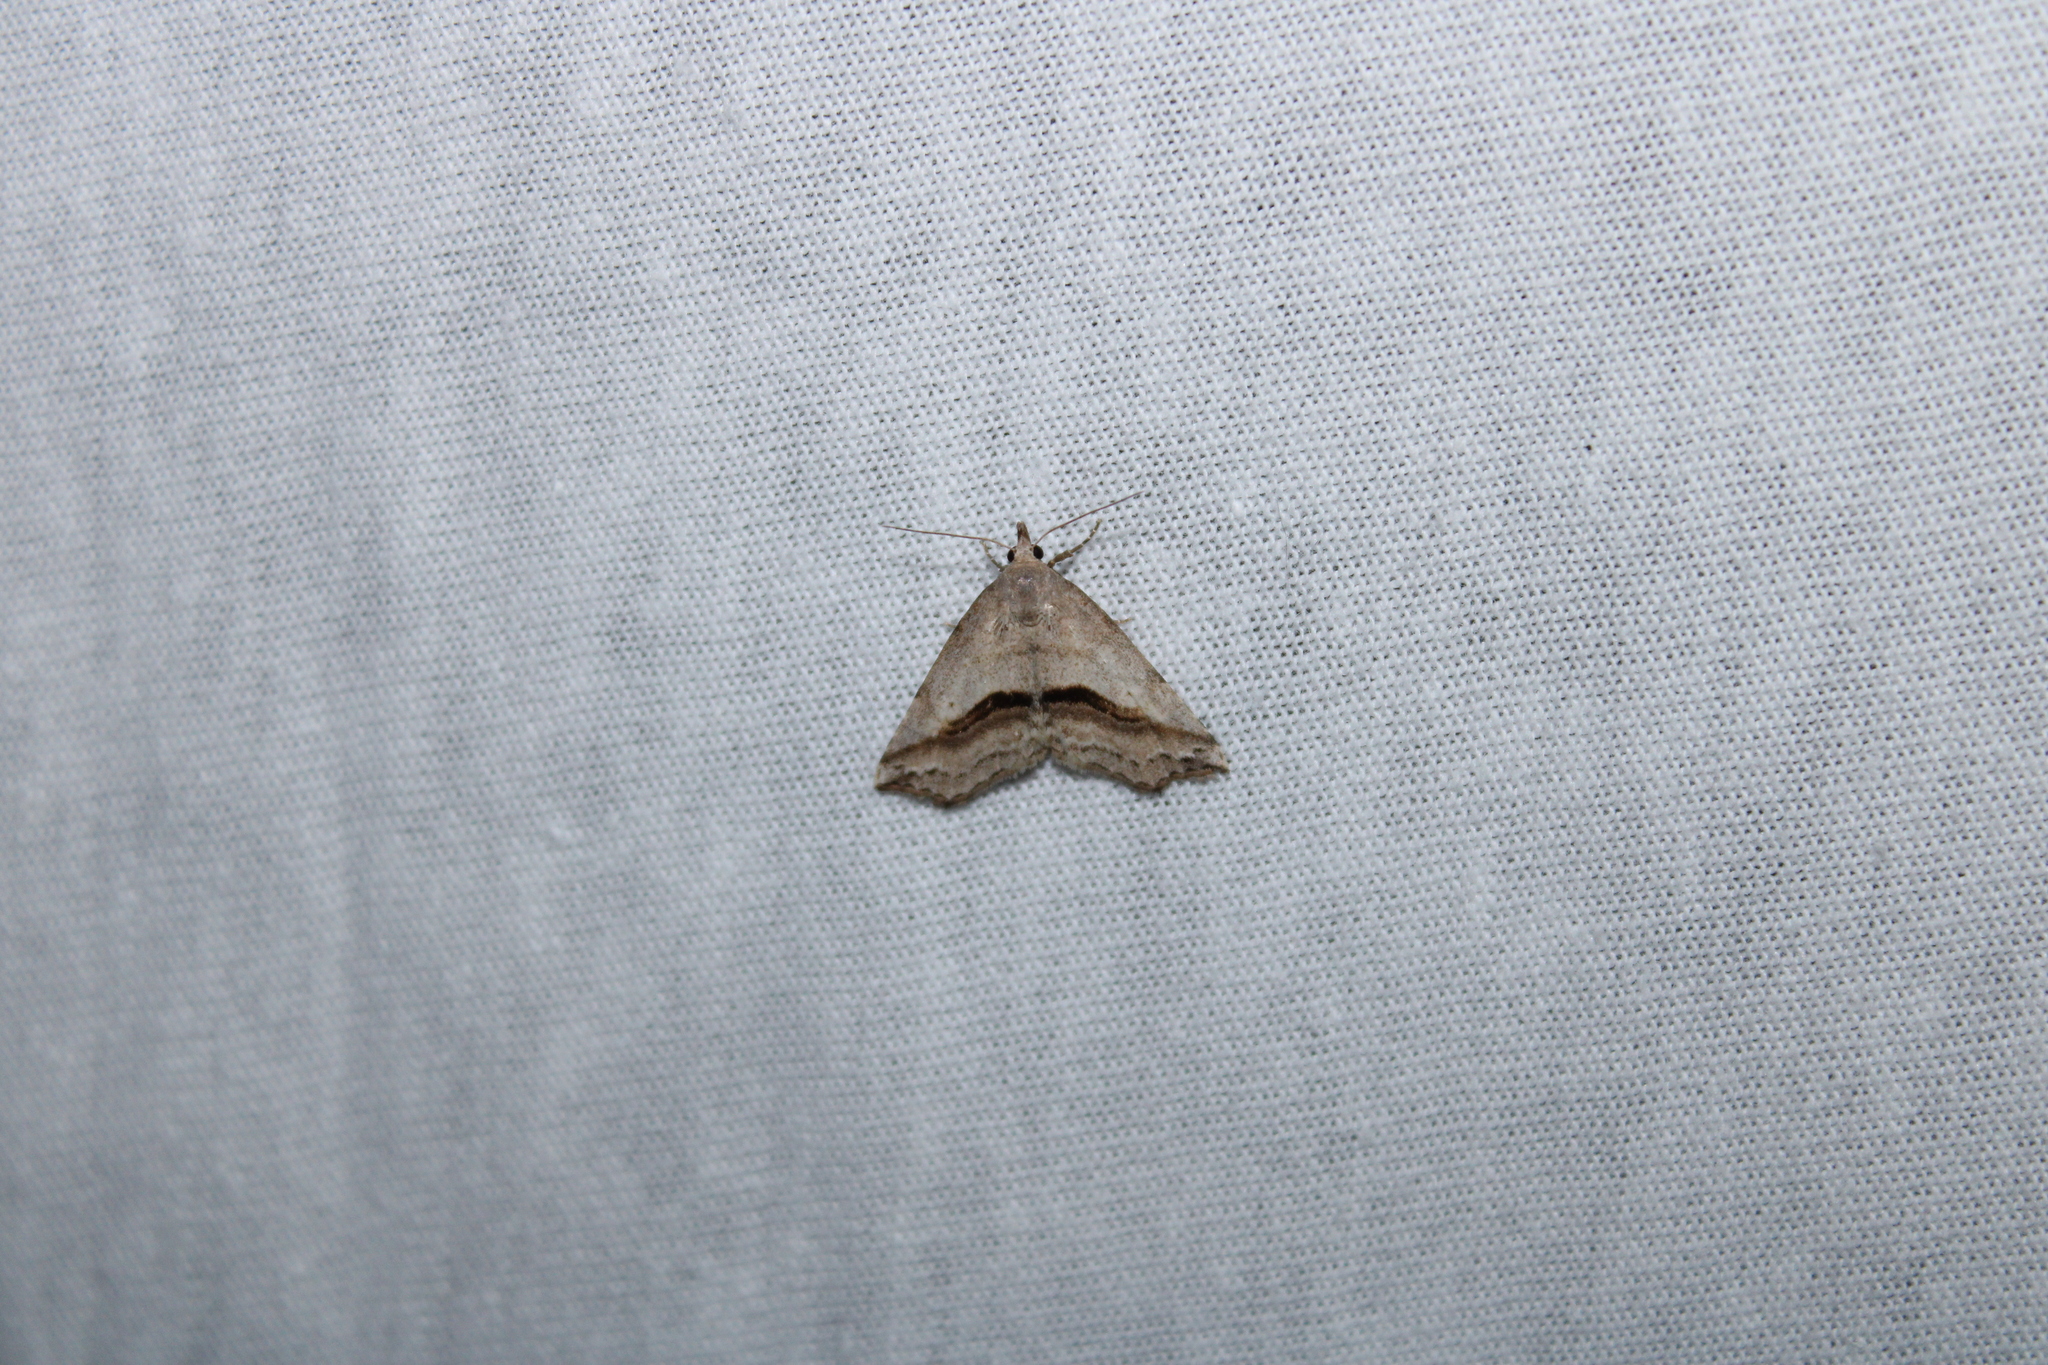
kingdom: Animalia
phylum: Arthropoda
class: Insecta
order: Lepidoptera
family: Erebidae
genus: Spargaloma
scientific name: Spargaloma perditalis
